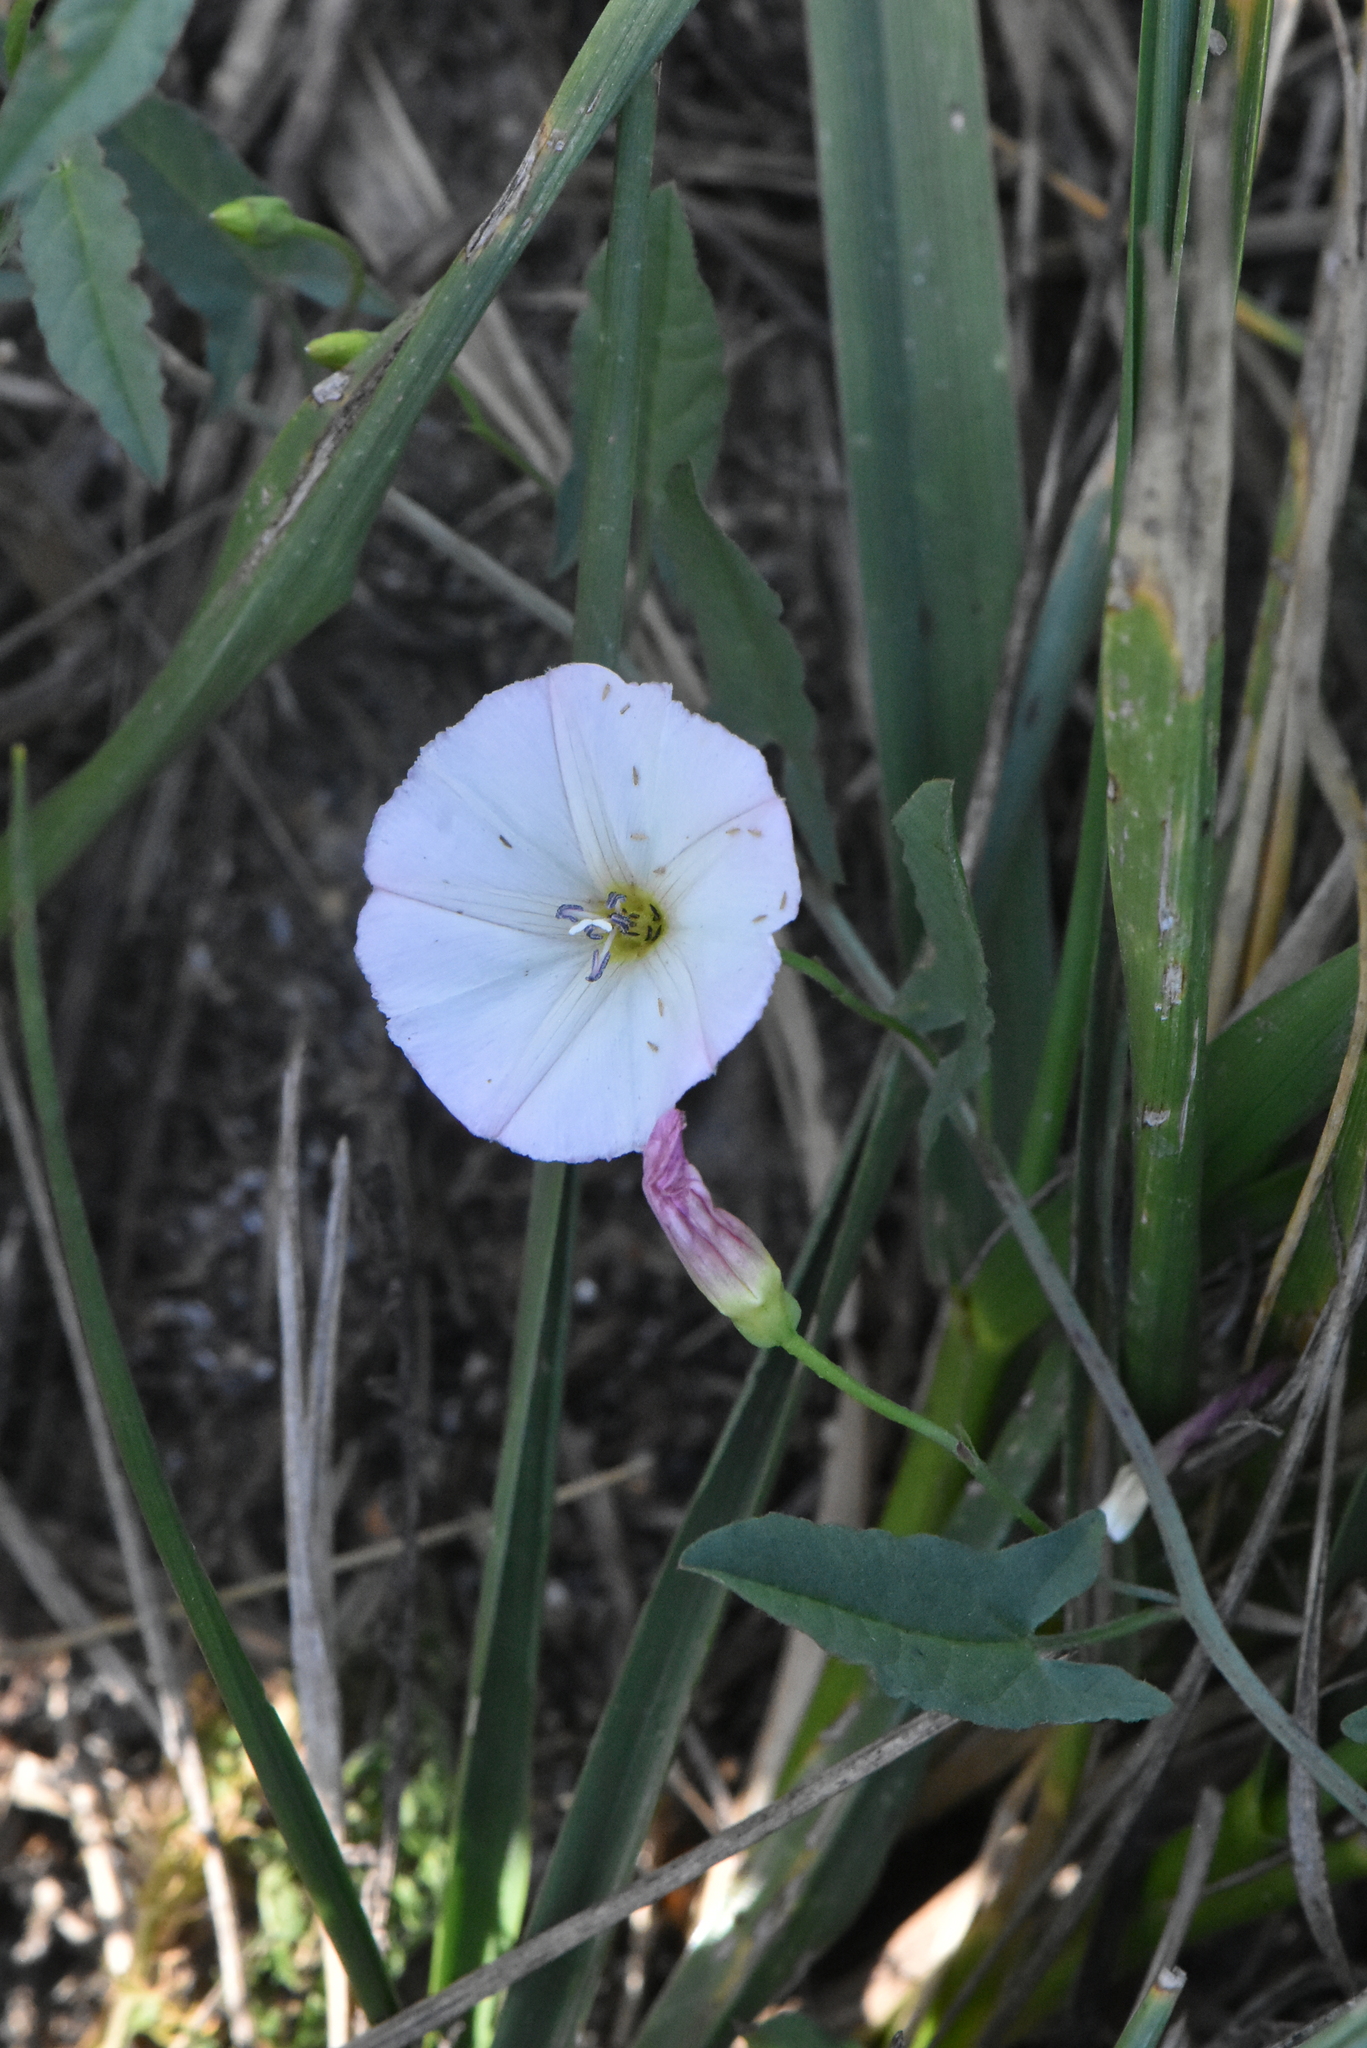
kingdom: Plantae
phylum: Tracheophyta
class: Magnoliopsida
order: Solanales
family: Convolvulaceae
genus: Convolvulus
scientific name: Convolvulus arvensis
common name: Field bindweed
